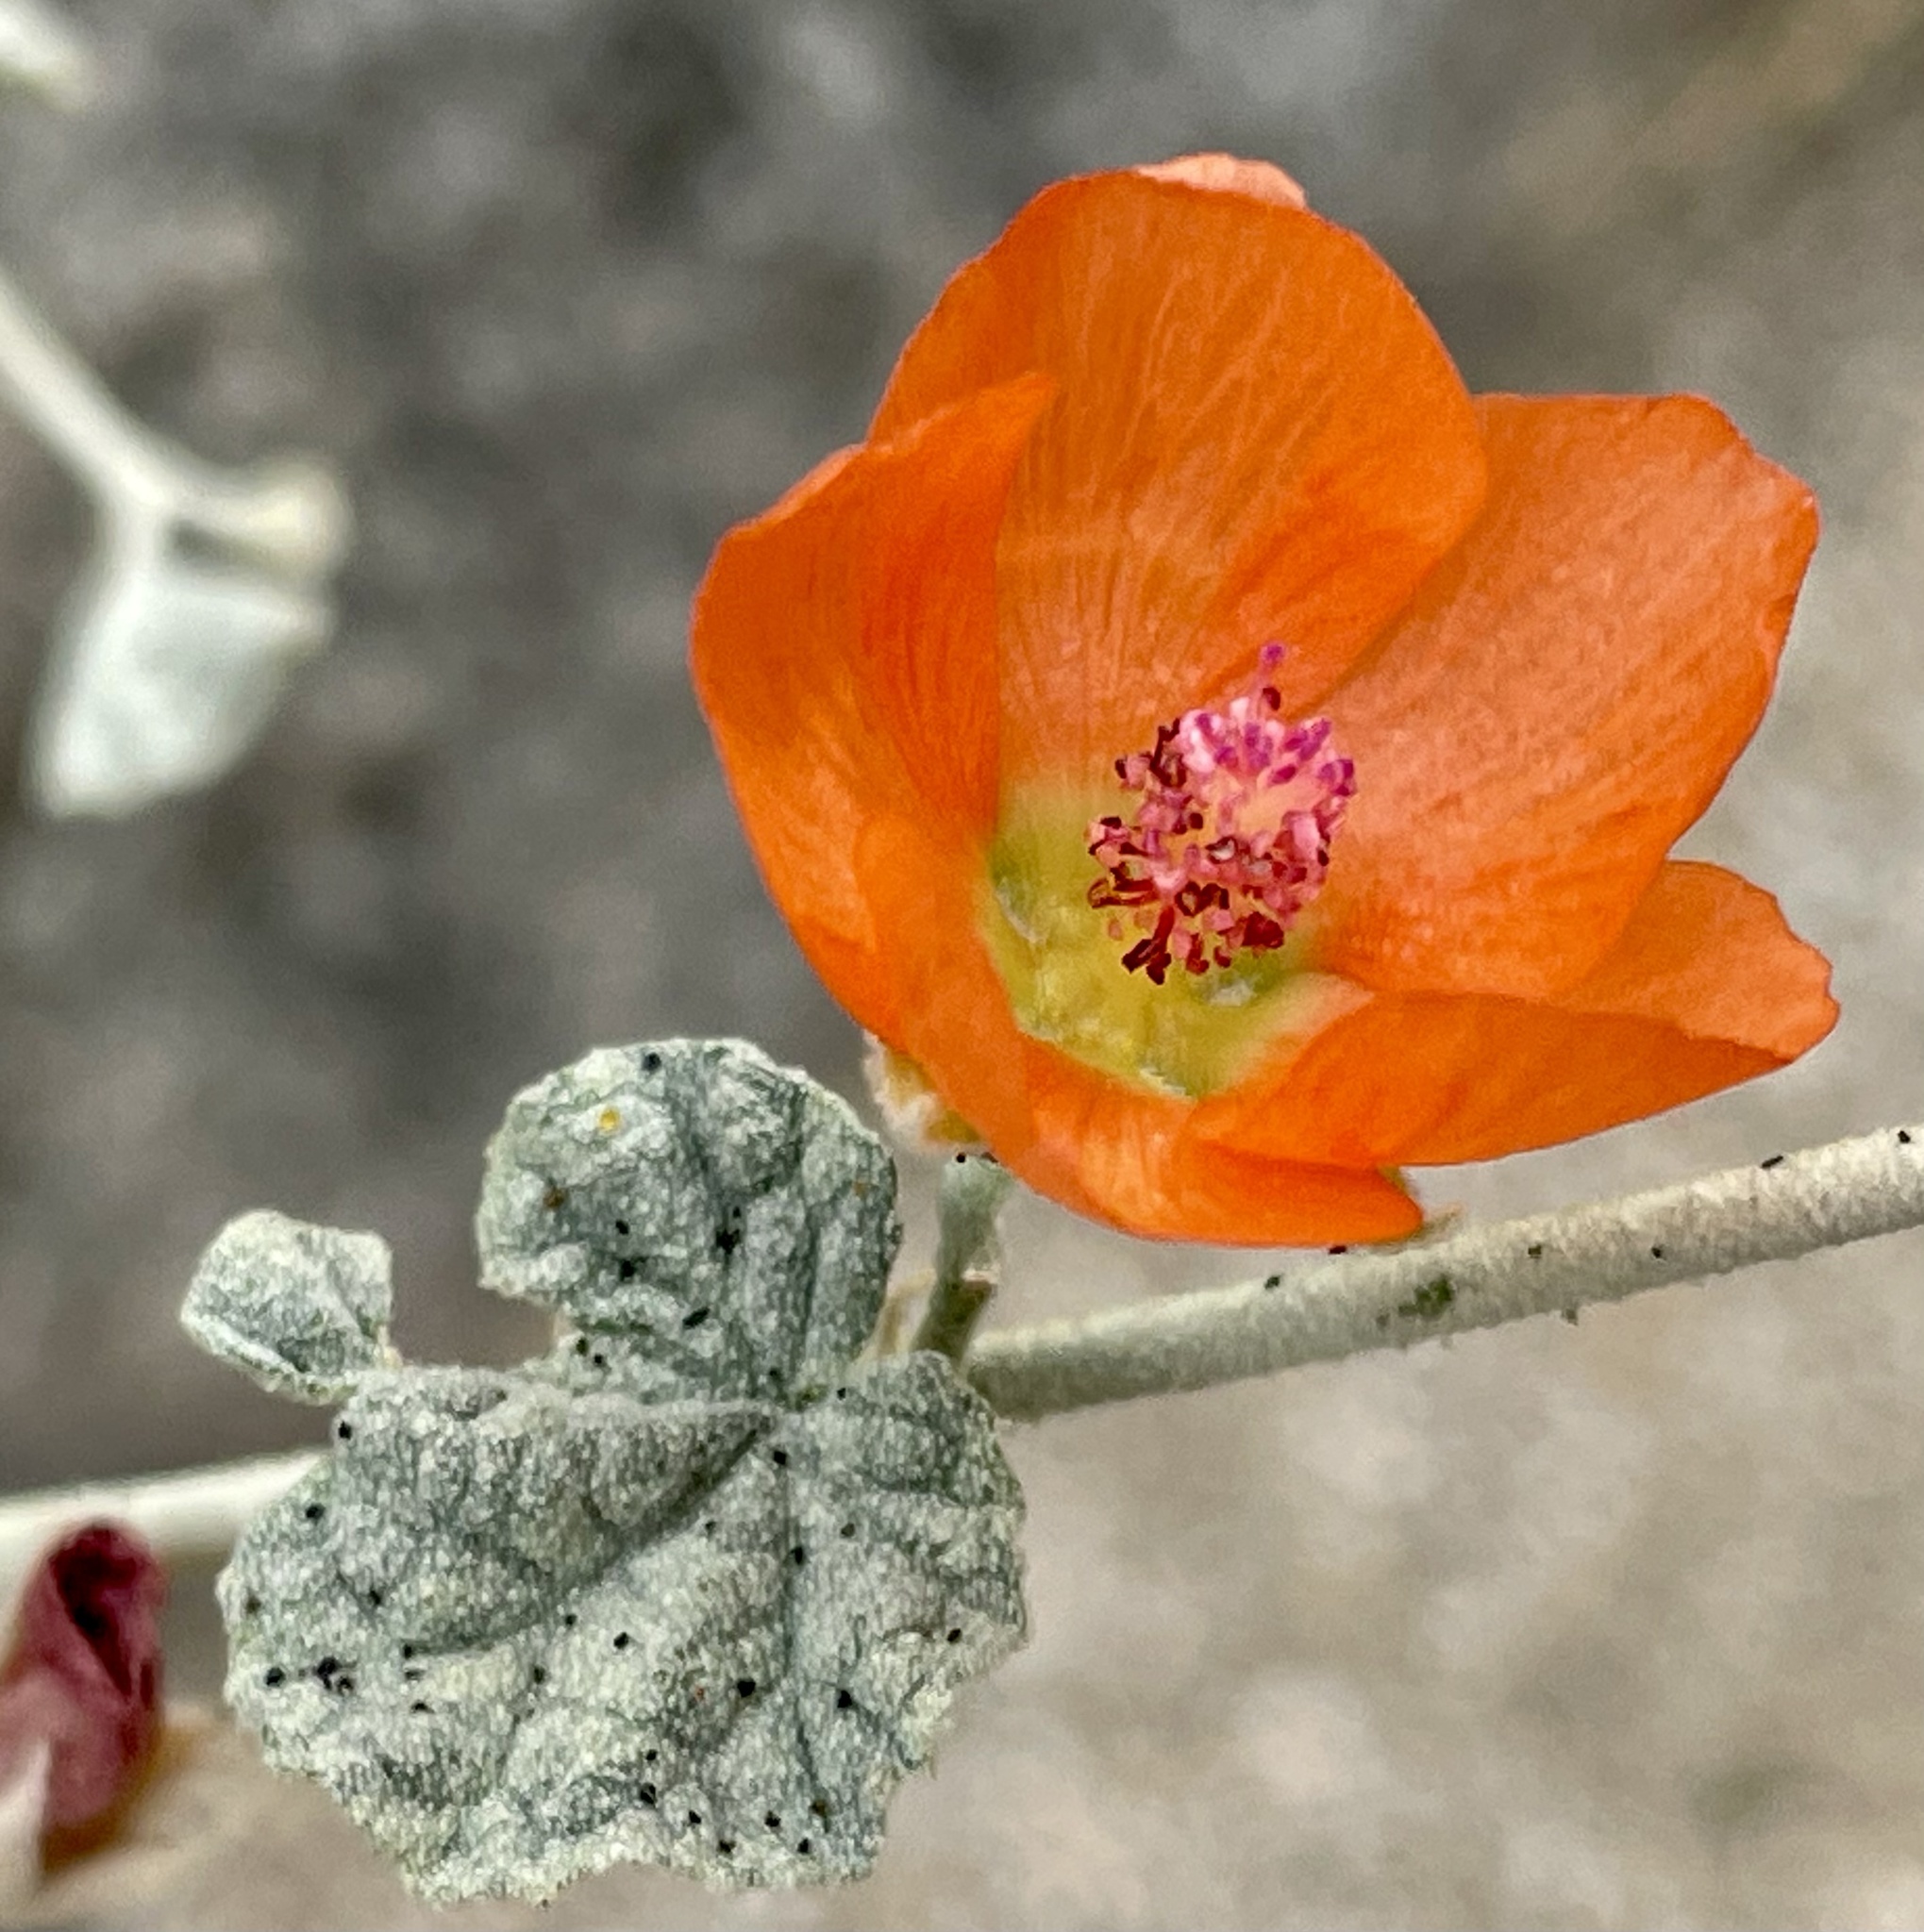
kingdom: Plantae
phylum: Tracheophyta
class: Magnoliopsida
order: Malvales
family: Malvaceae
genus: Sphaeralcea
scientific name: Sphaeralcea ambigua
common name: Apricot globe-mallow
